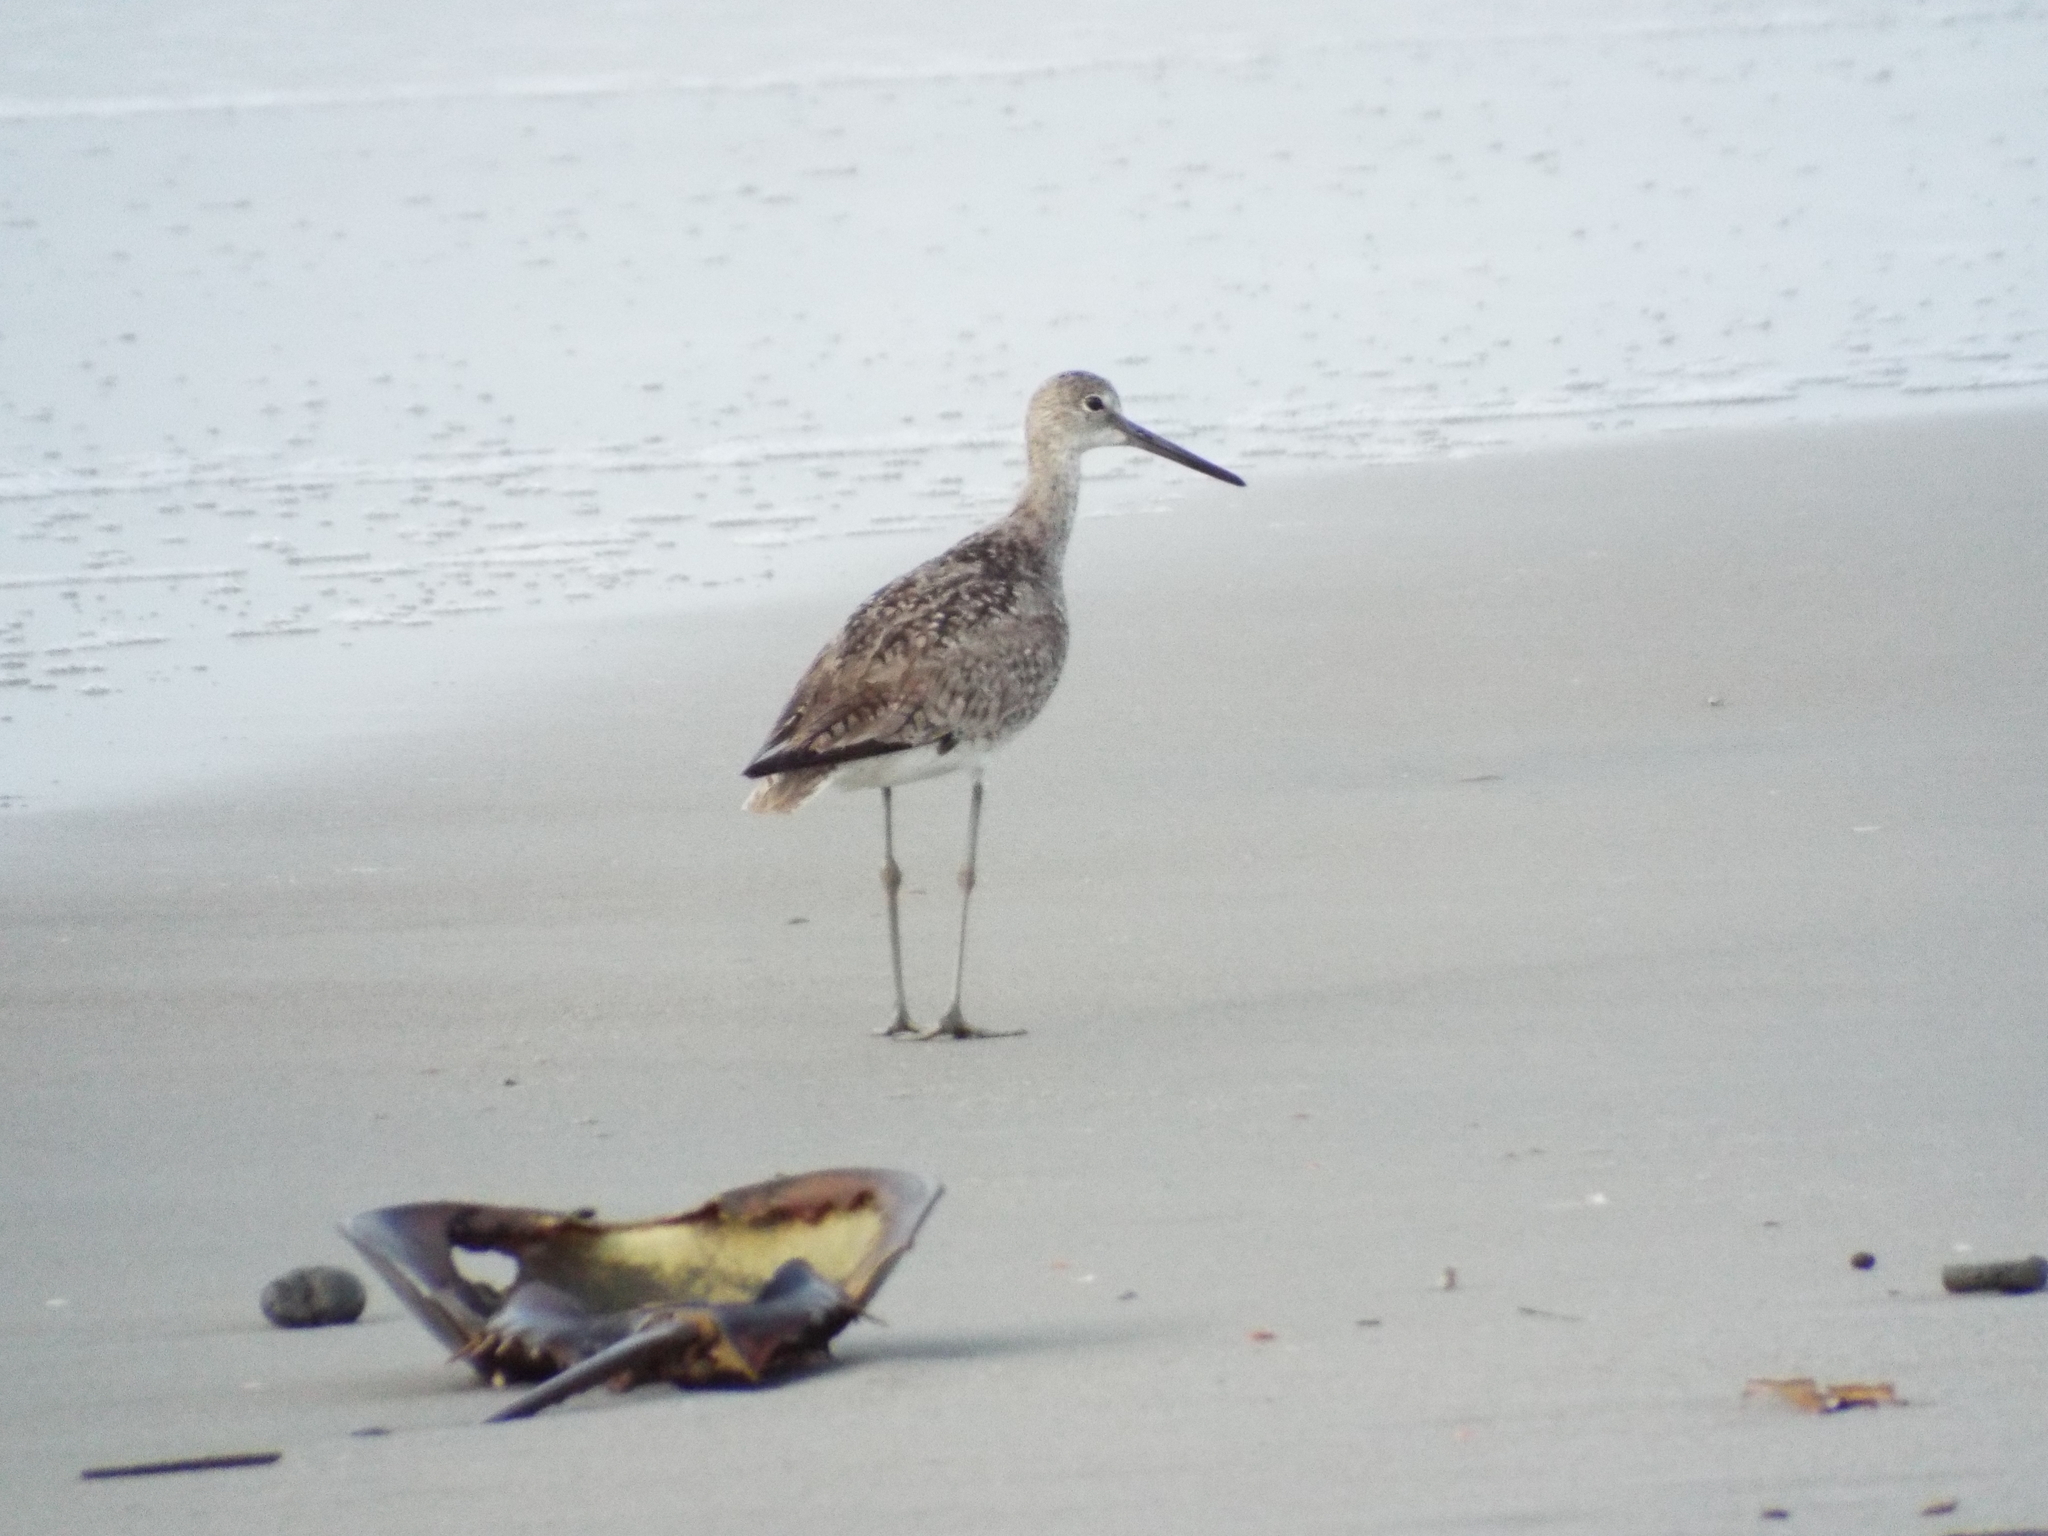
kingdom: Animalia
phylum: Chordata
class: Aves
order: Charadriiformes
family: Scolopacidae
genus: Tringa
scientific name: Tringa semipalmata
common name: Willet
